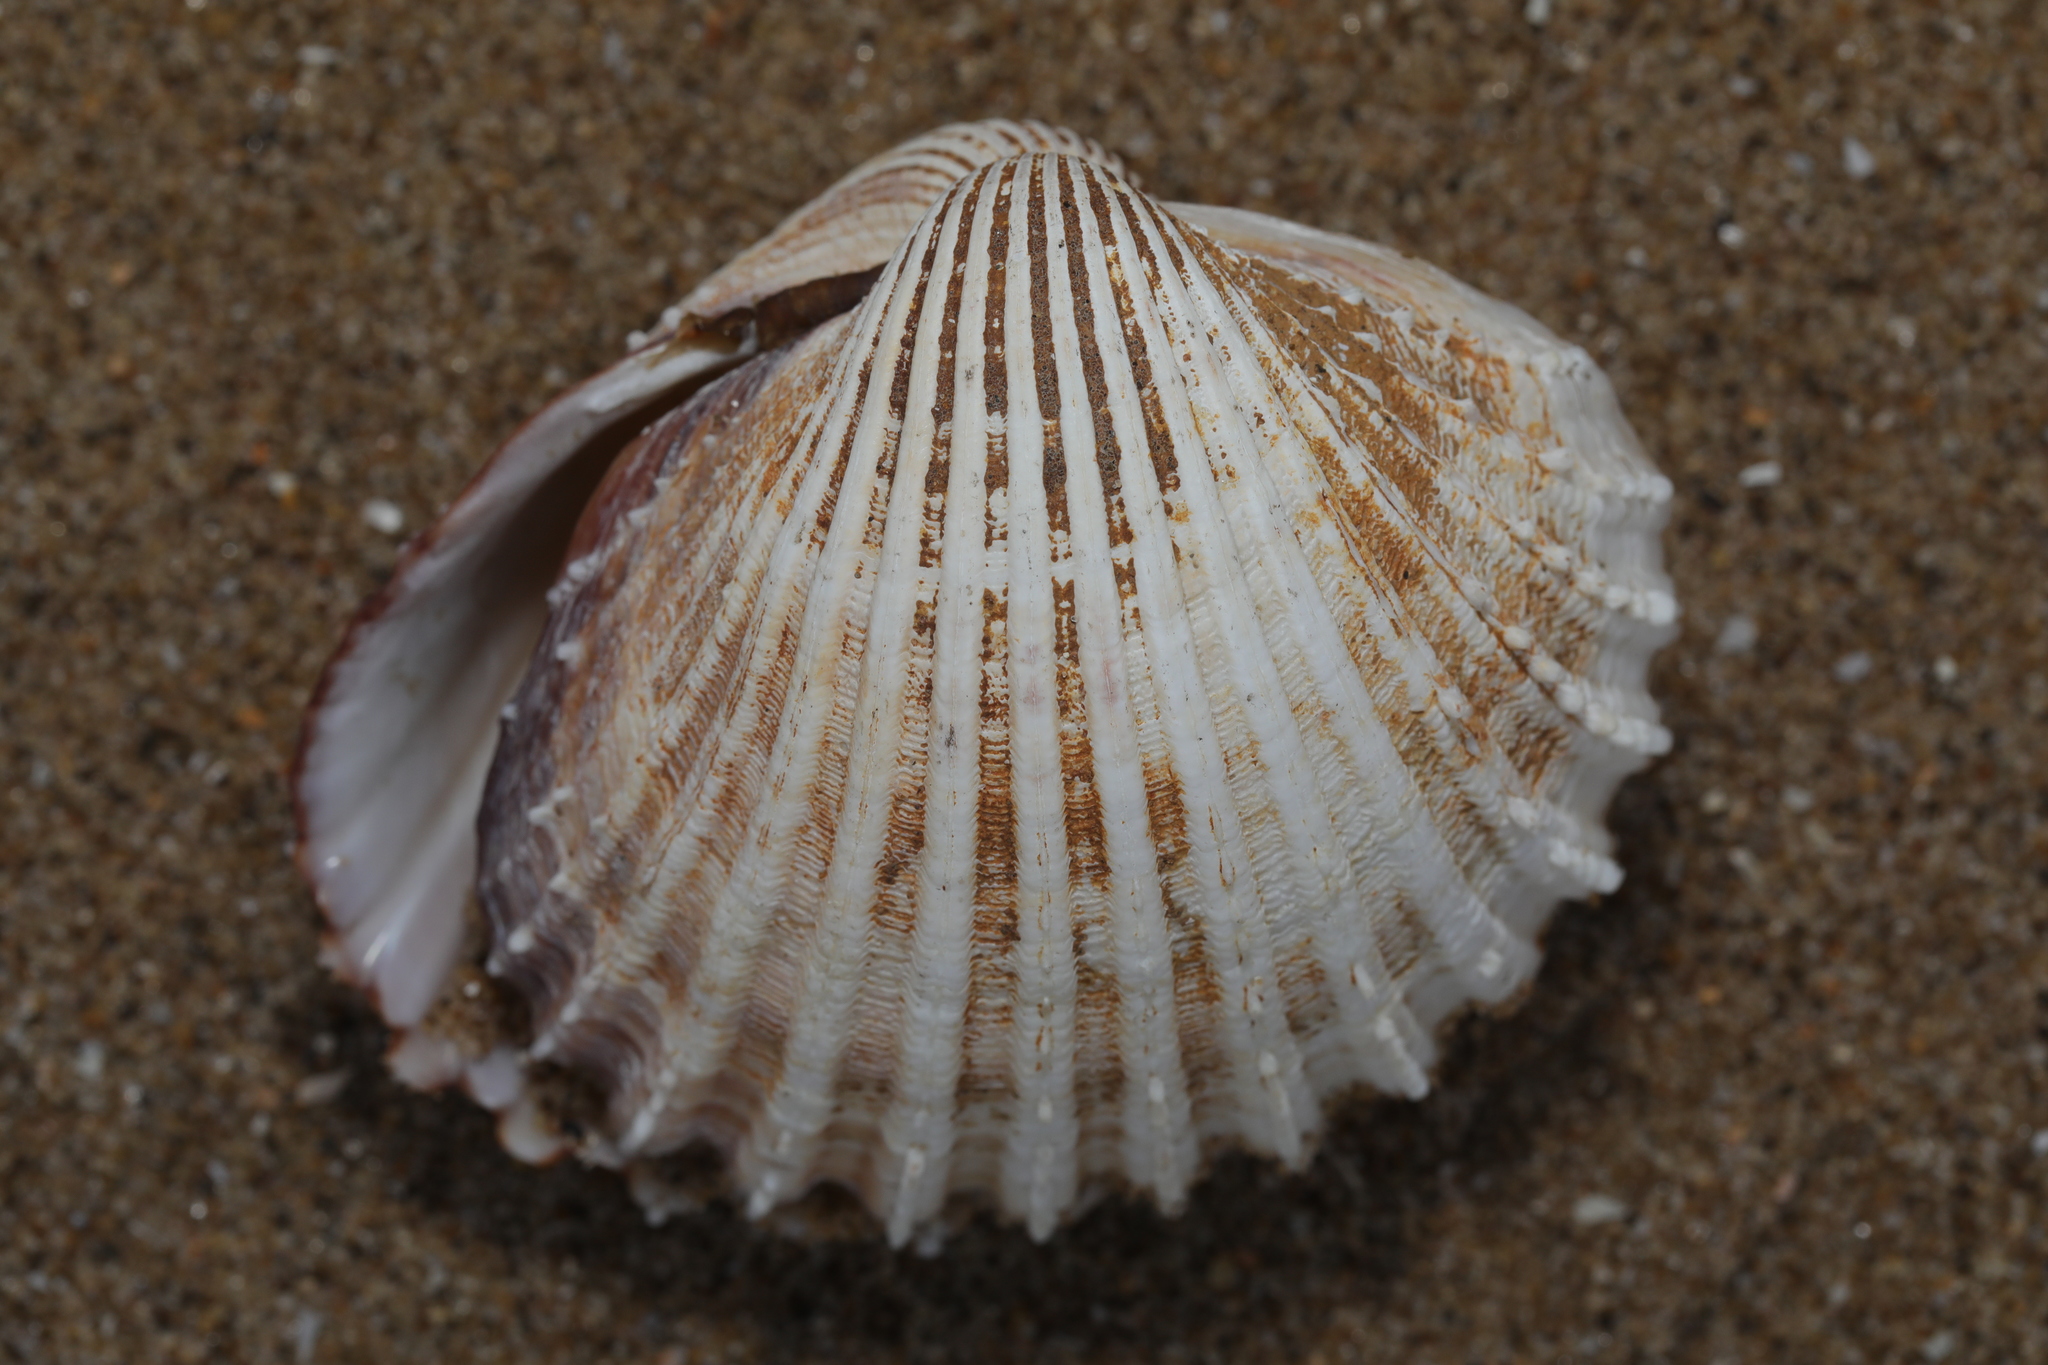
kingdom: Animalia
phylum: Mollusca
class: Bivalvia
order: Cardiida
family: Cardiidae
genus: Acanthocardia
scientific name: Acanthocardia echinata
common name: Prickly cockle
